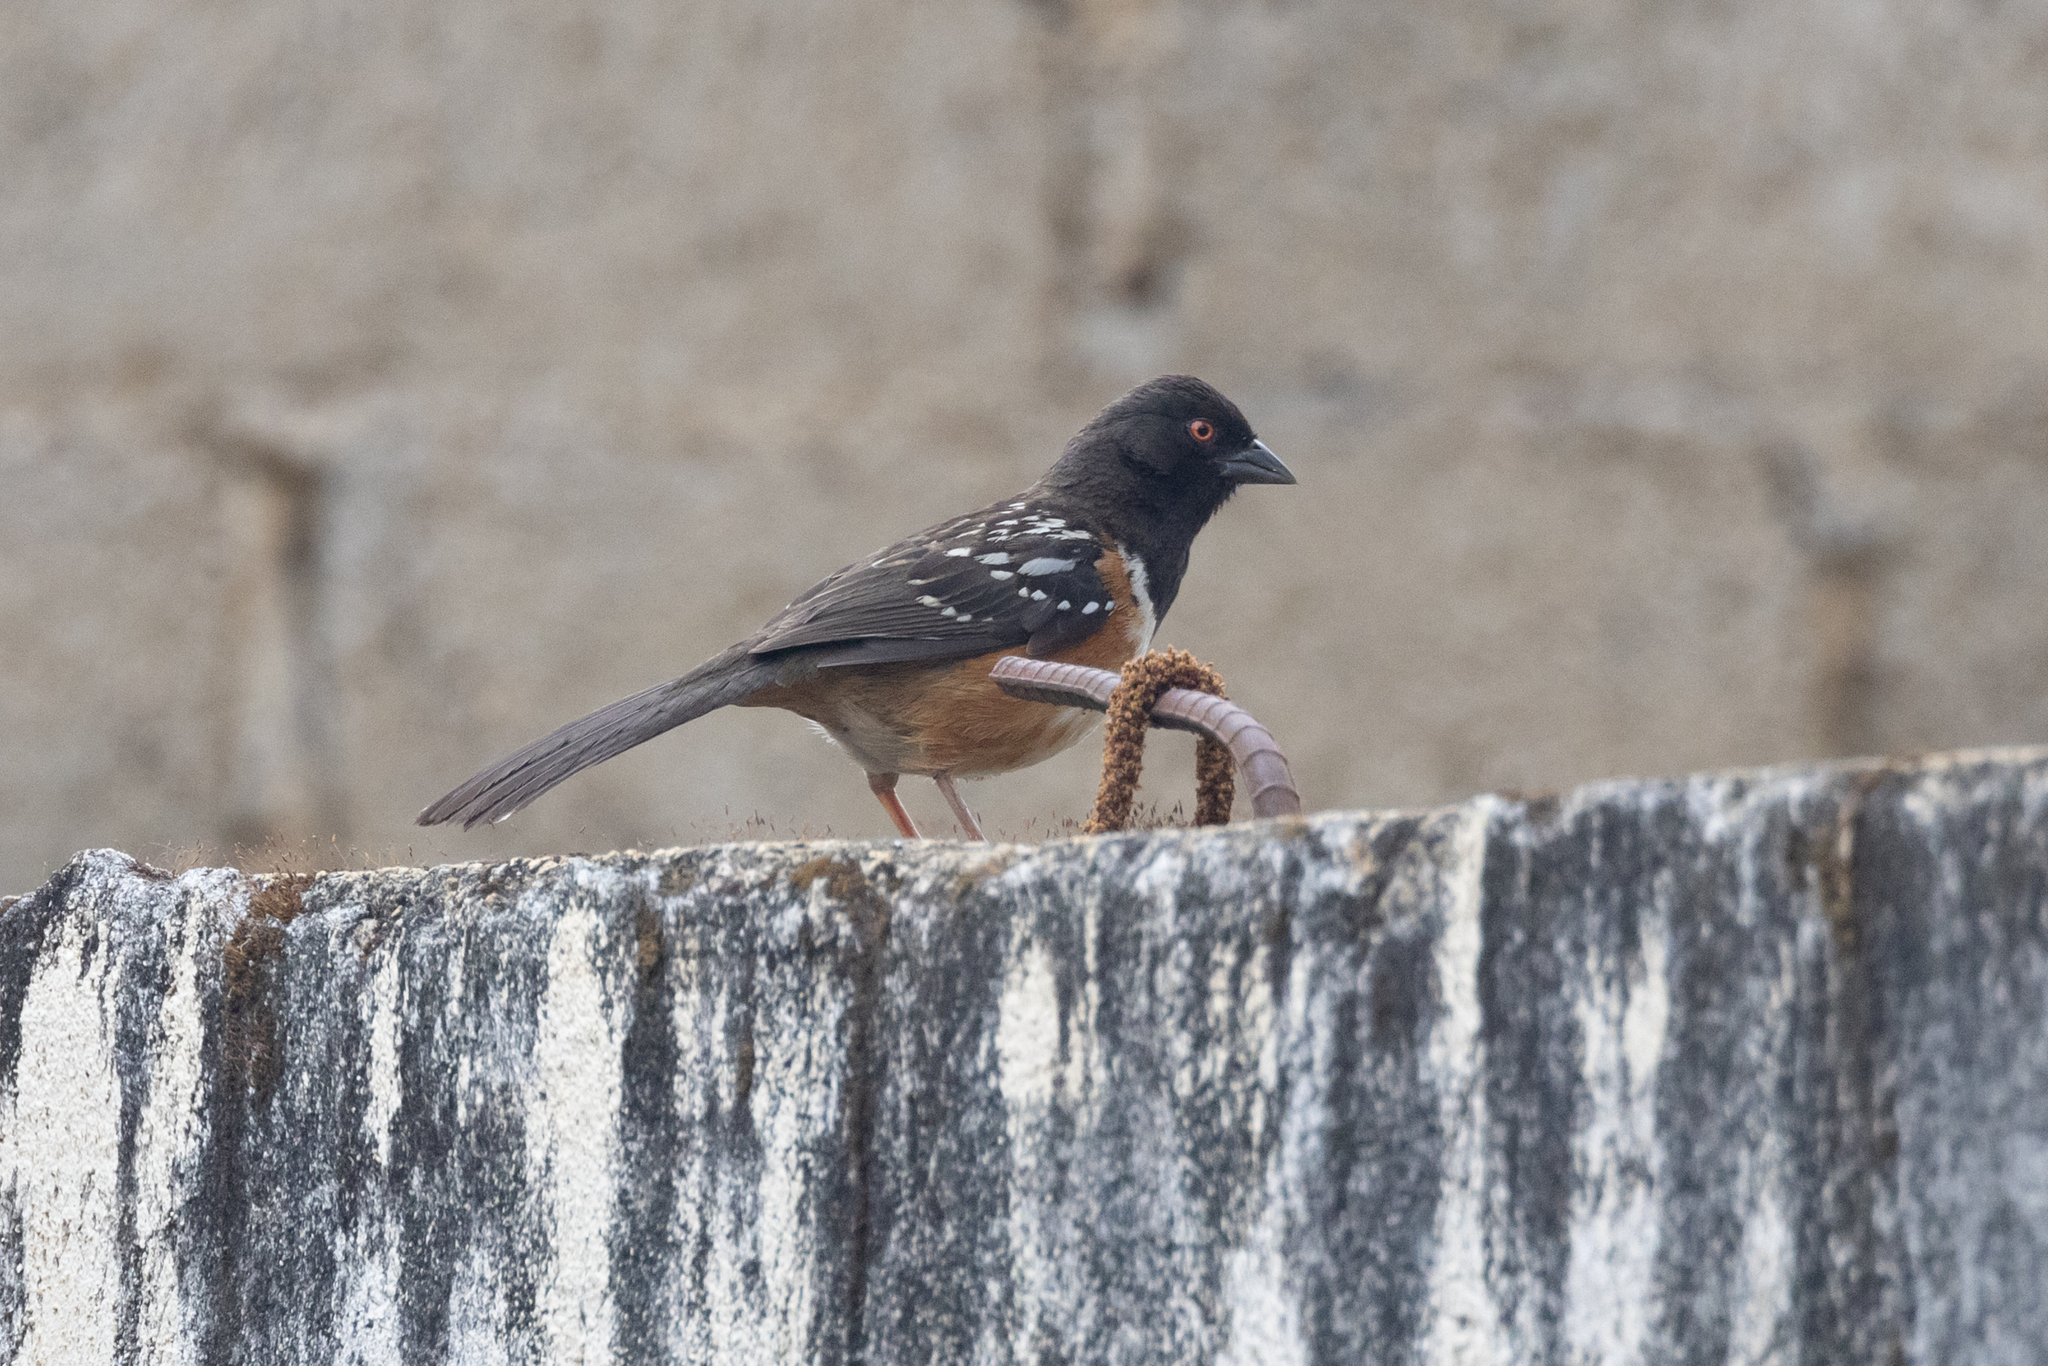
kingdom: Animalia
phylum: Chordata
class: Aves
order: Passeriformes
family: Passerellidae
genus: Pipilo
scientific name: Pipilo maculatus
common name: Spotted towhee
